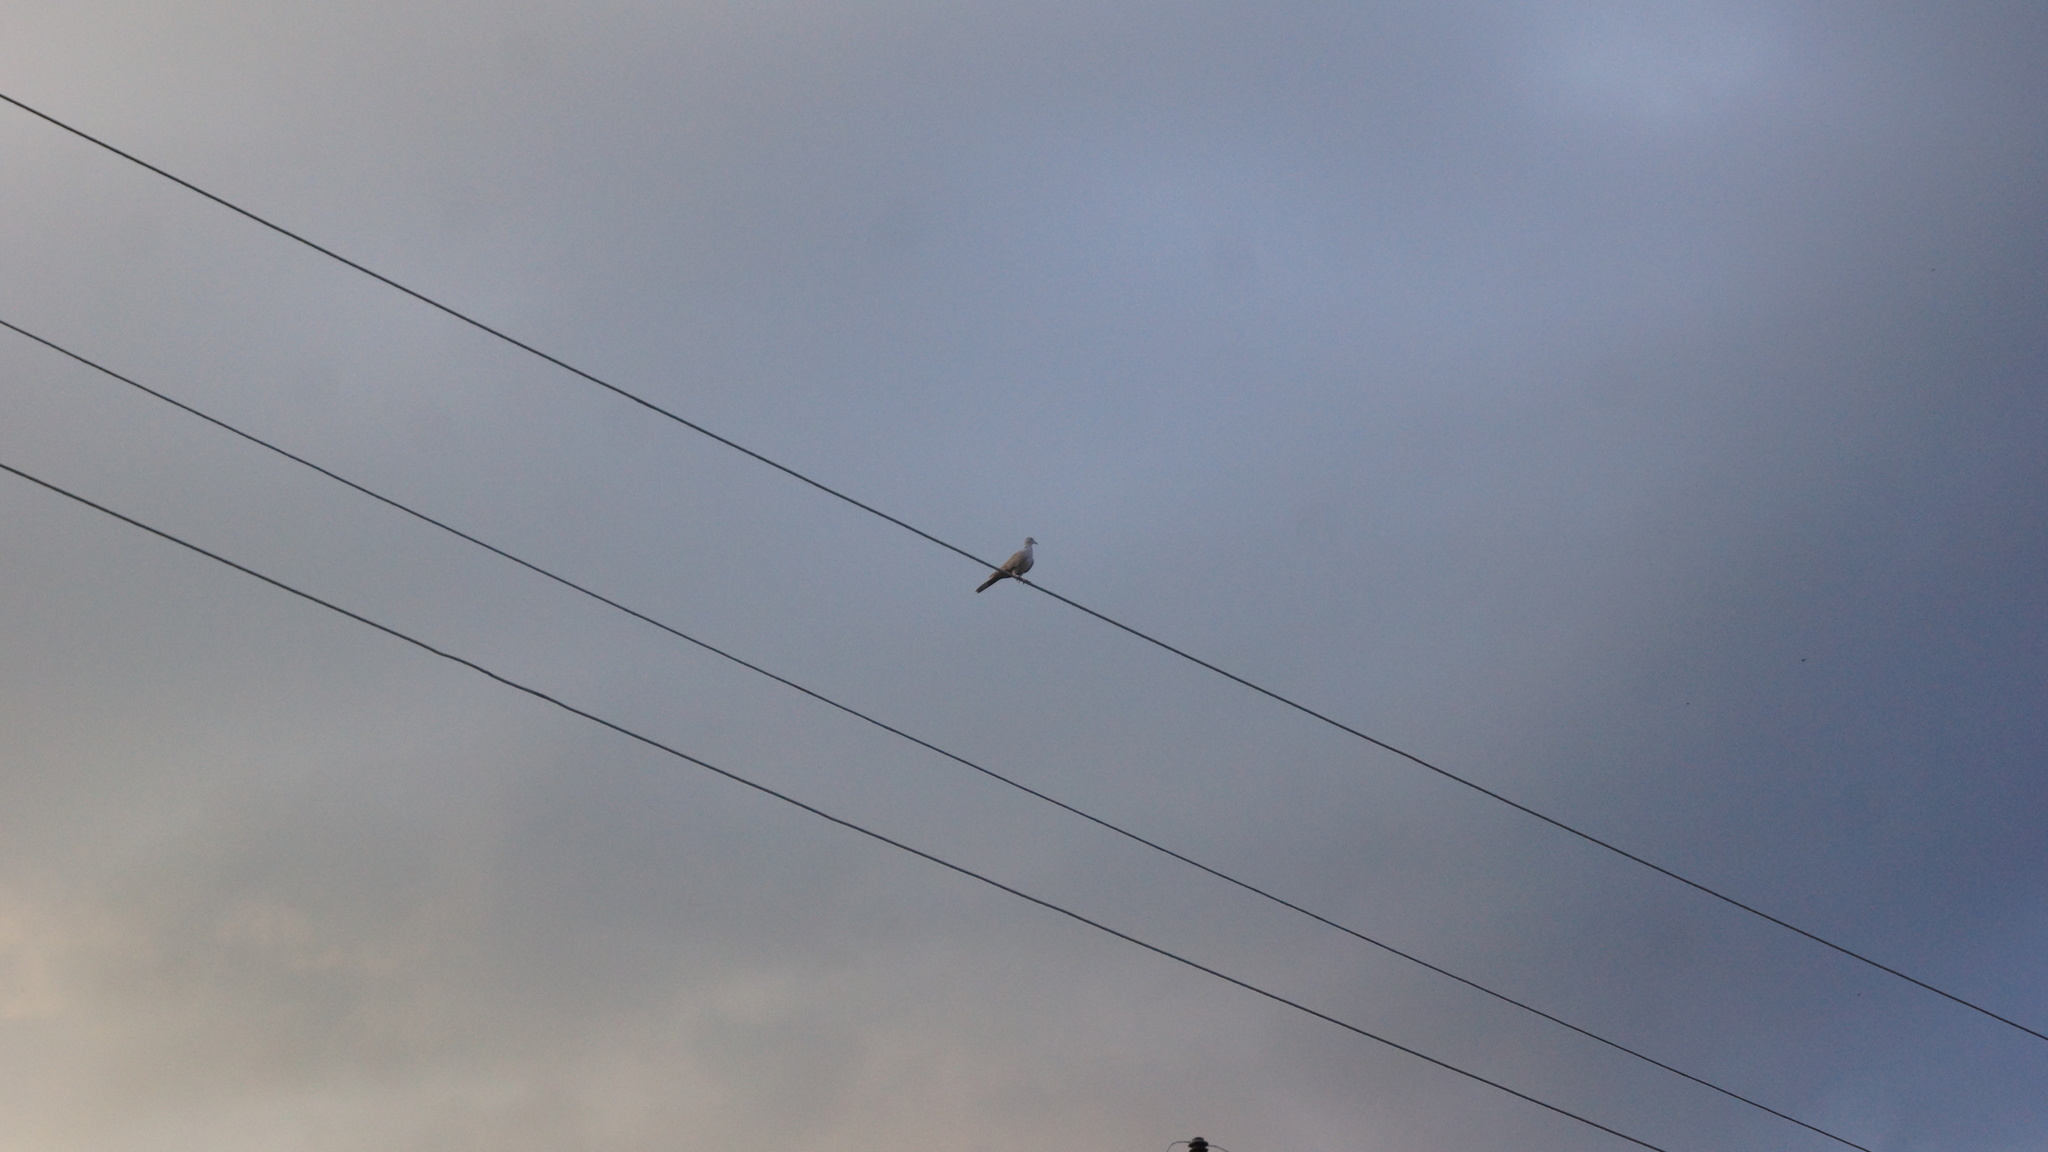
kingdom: Animalia
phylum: Chordata
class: Aves
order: Columbiformes
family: Columbidae
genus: Streptopelia
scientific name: Streptopelia decaocto
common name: Eurasian collared dove
